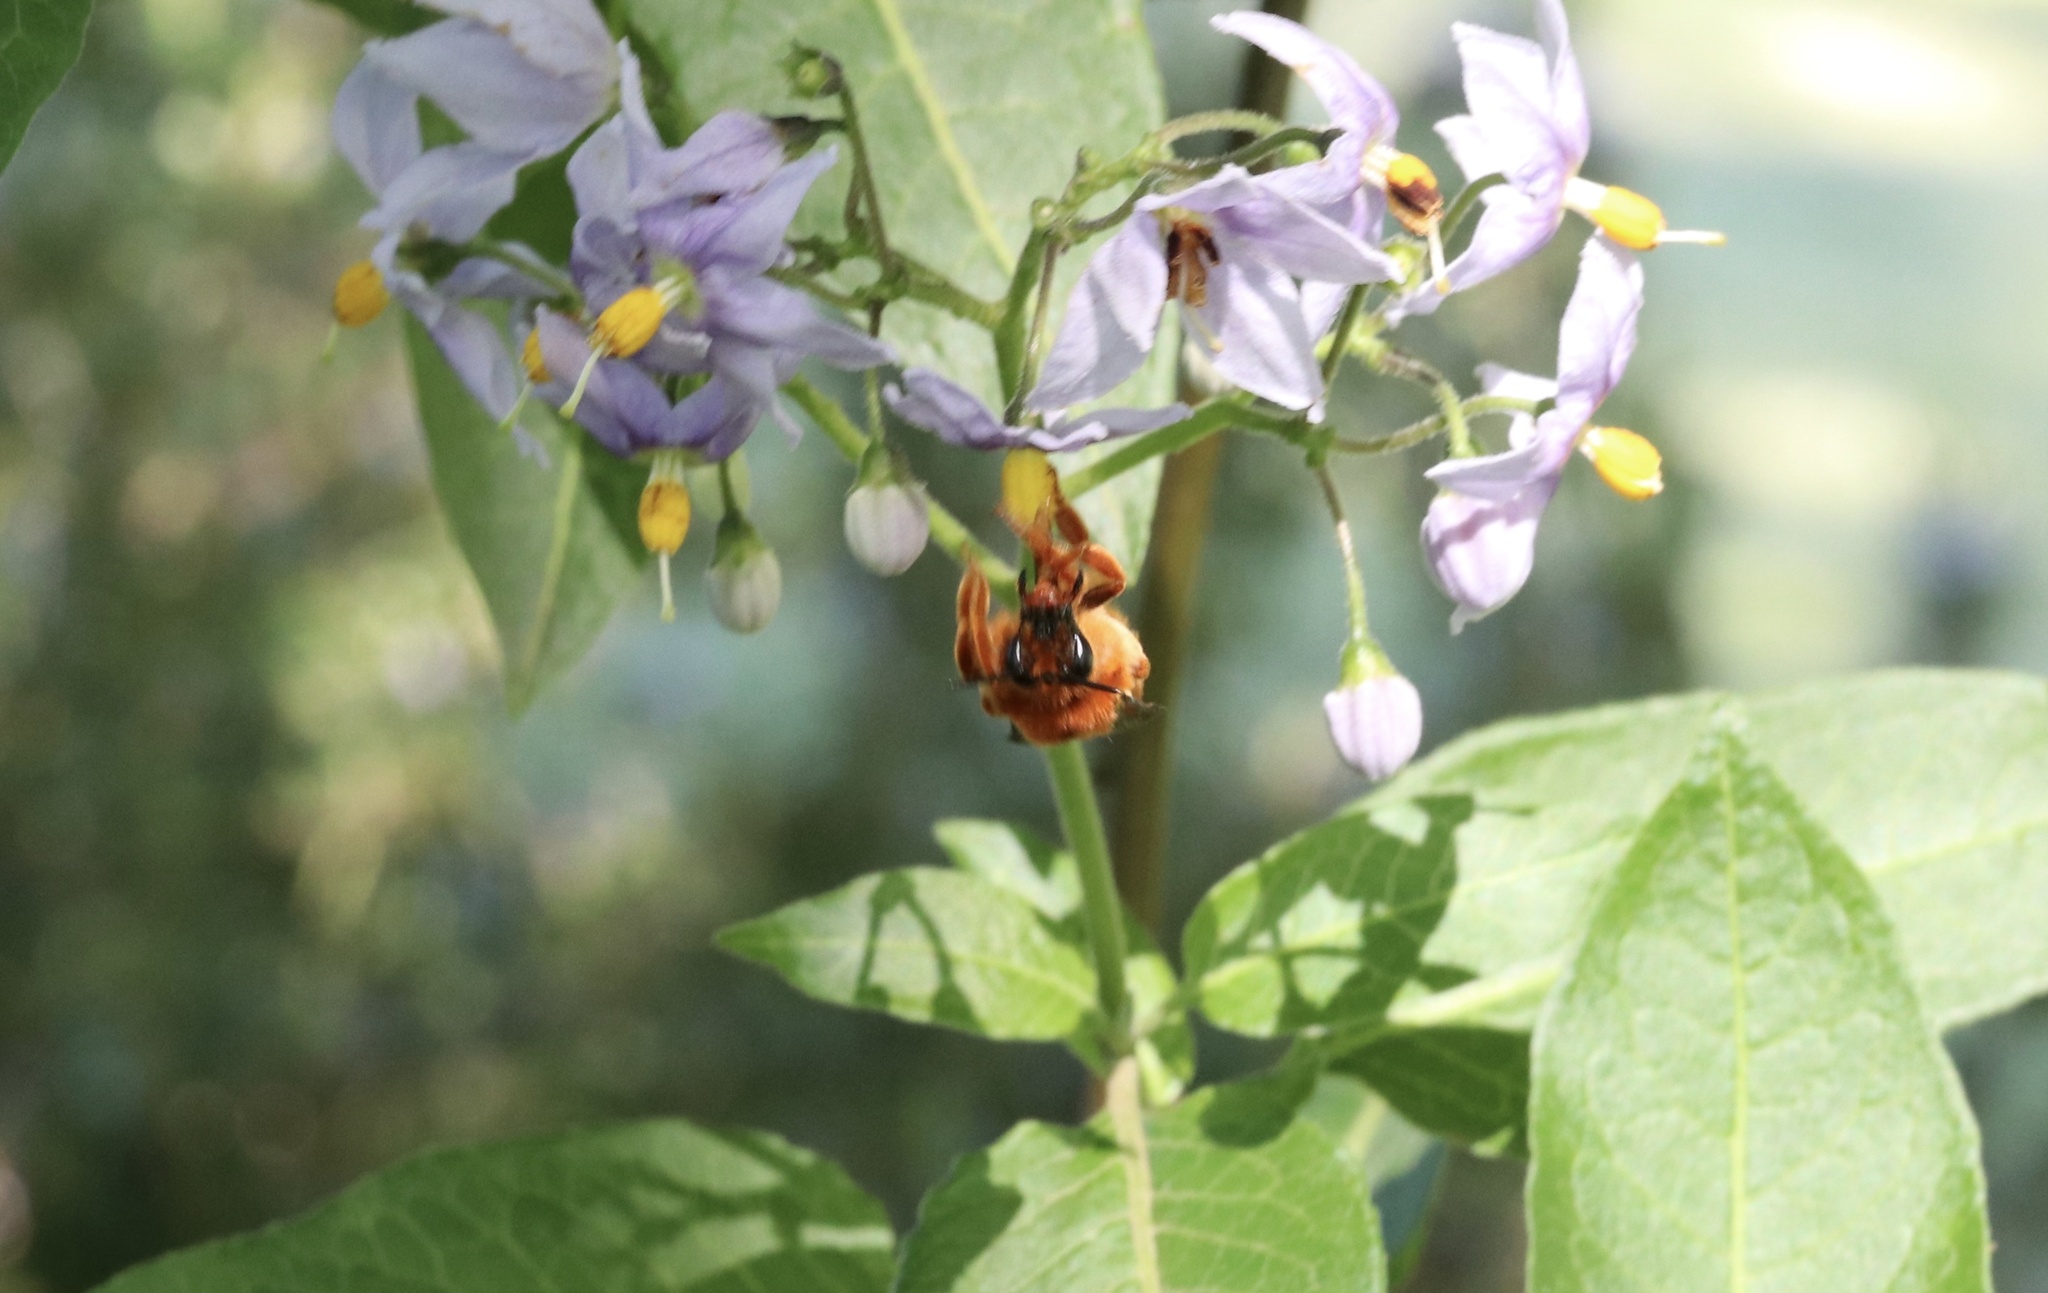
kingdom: Animalia
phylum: Arthropoda
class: Insecta
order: Hymenoptera
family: Colletidae
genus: Diphaglossa
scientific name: Diphaglossa gayi
